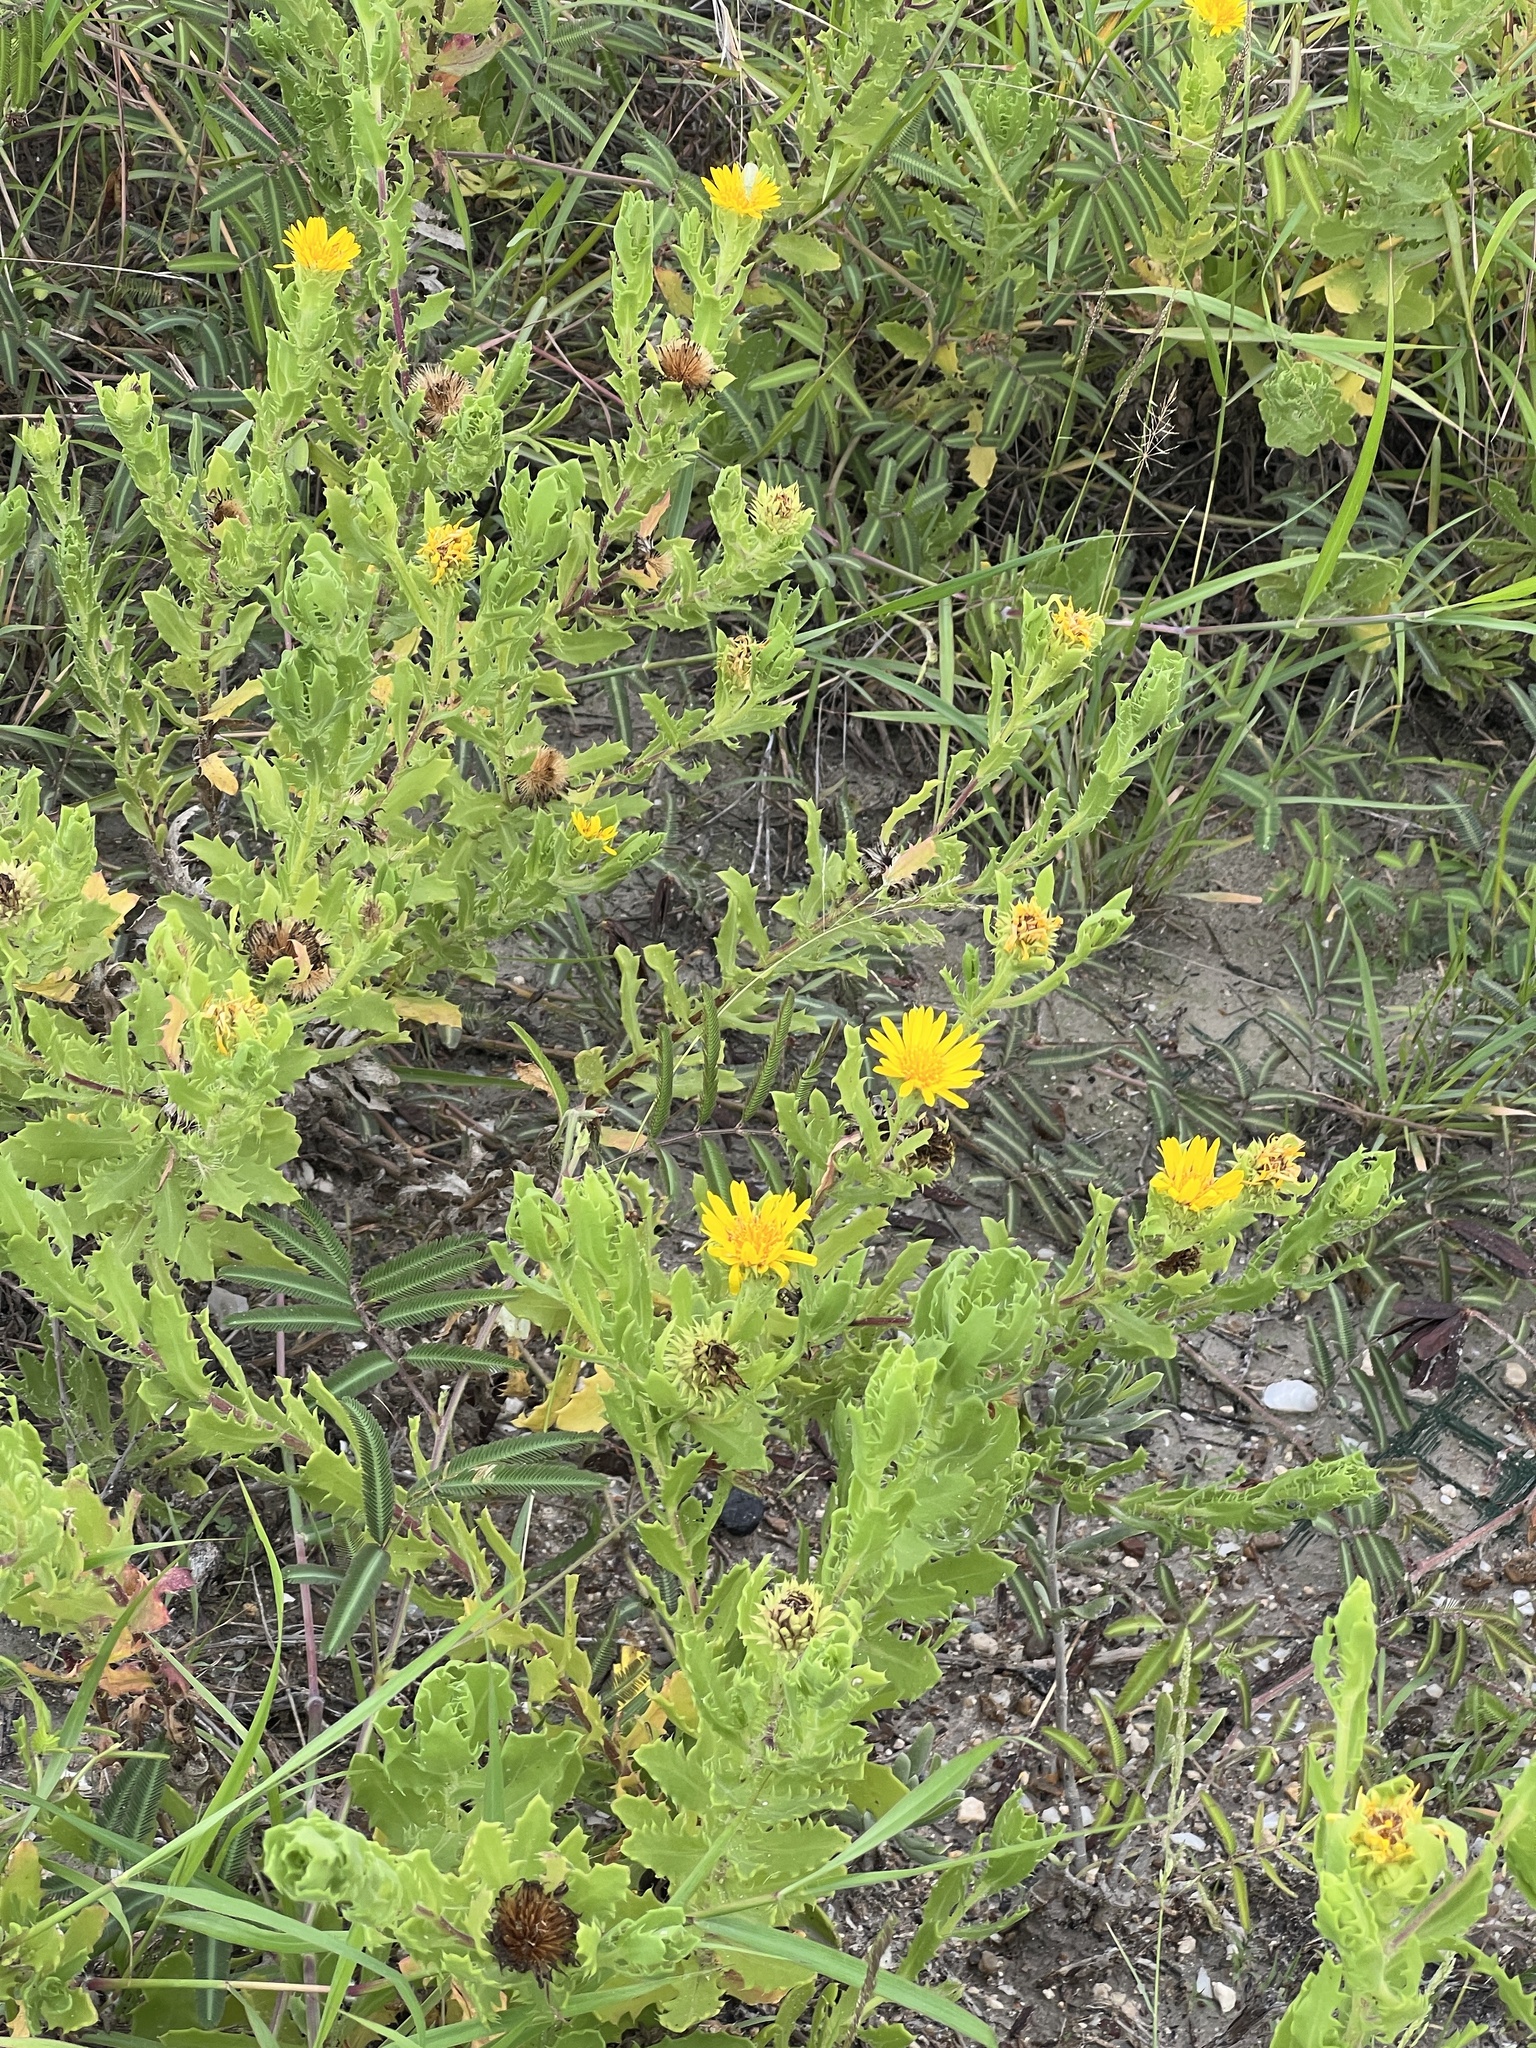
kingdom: Plantae
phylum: Tracheophyta
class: Magnoliopsida
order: Asterales
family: Asteraceae
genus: Rayjacksonia
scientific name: Rayjacksonia phyllocephala
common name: Gulf coast camphor daisy
